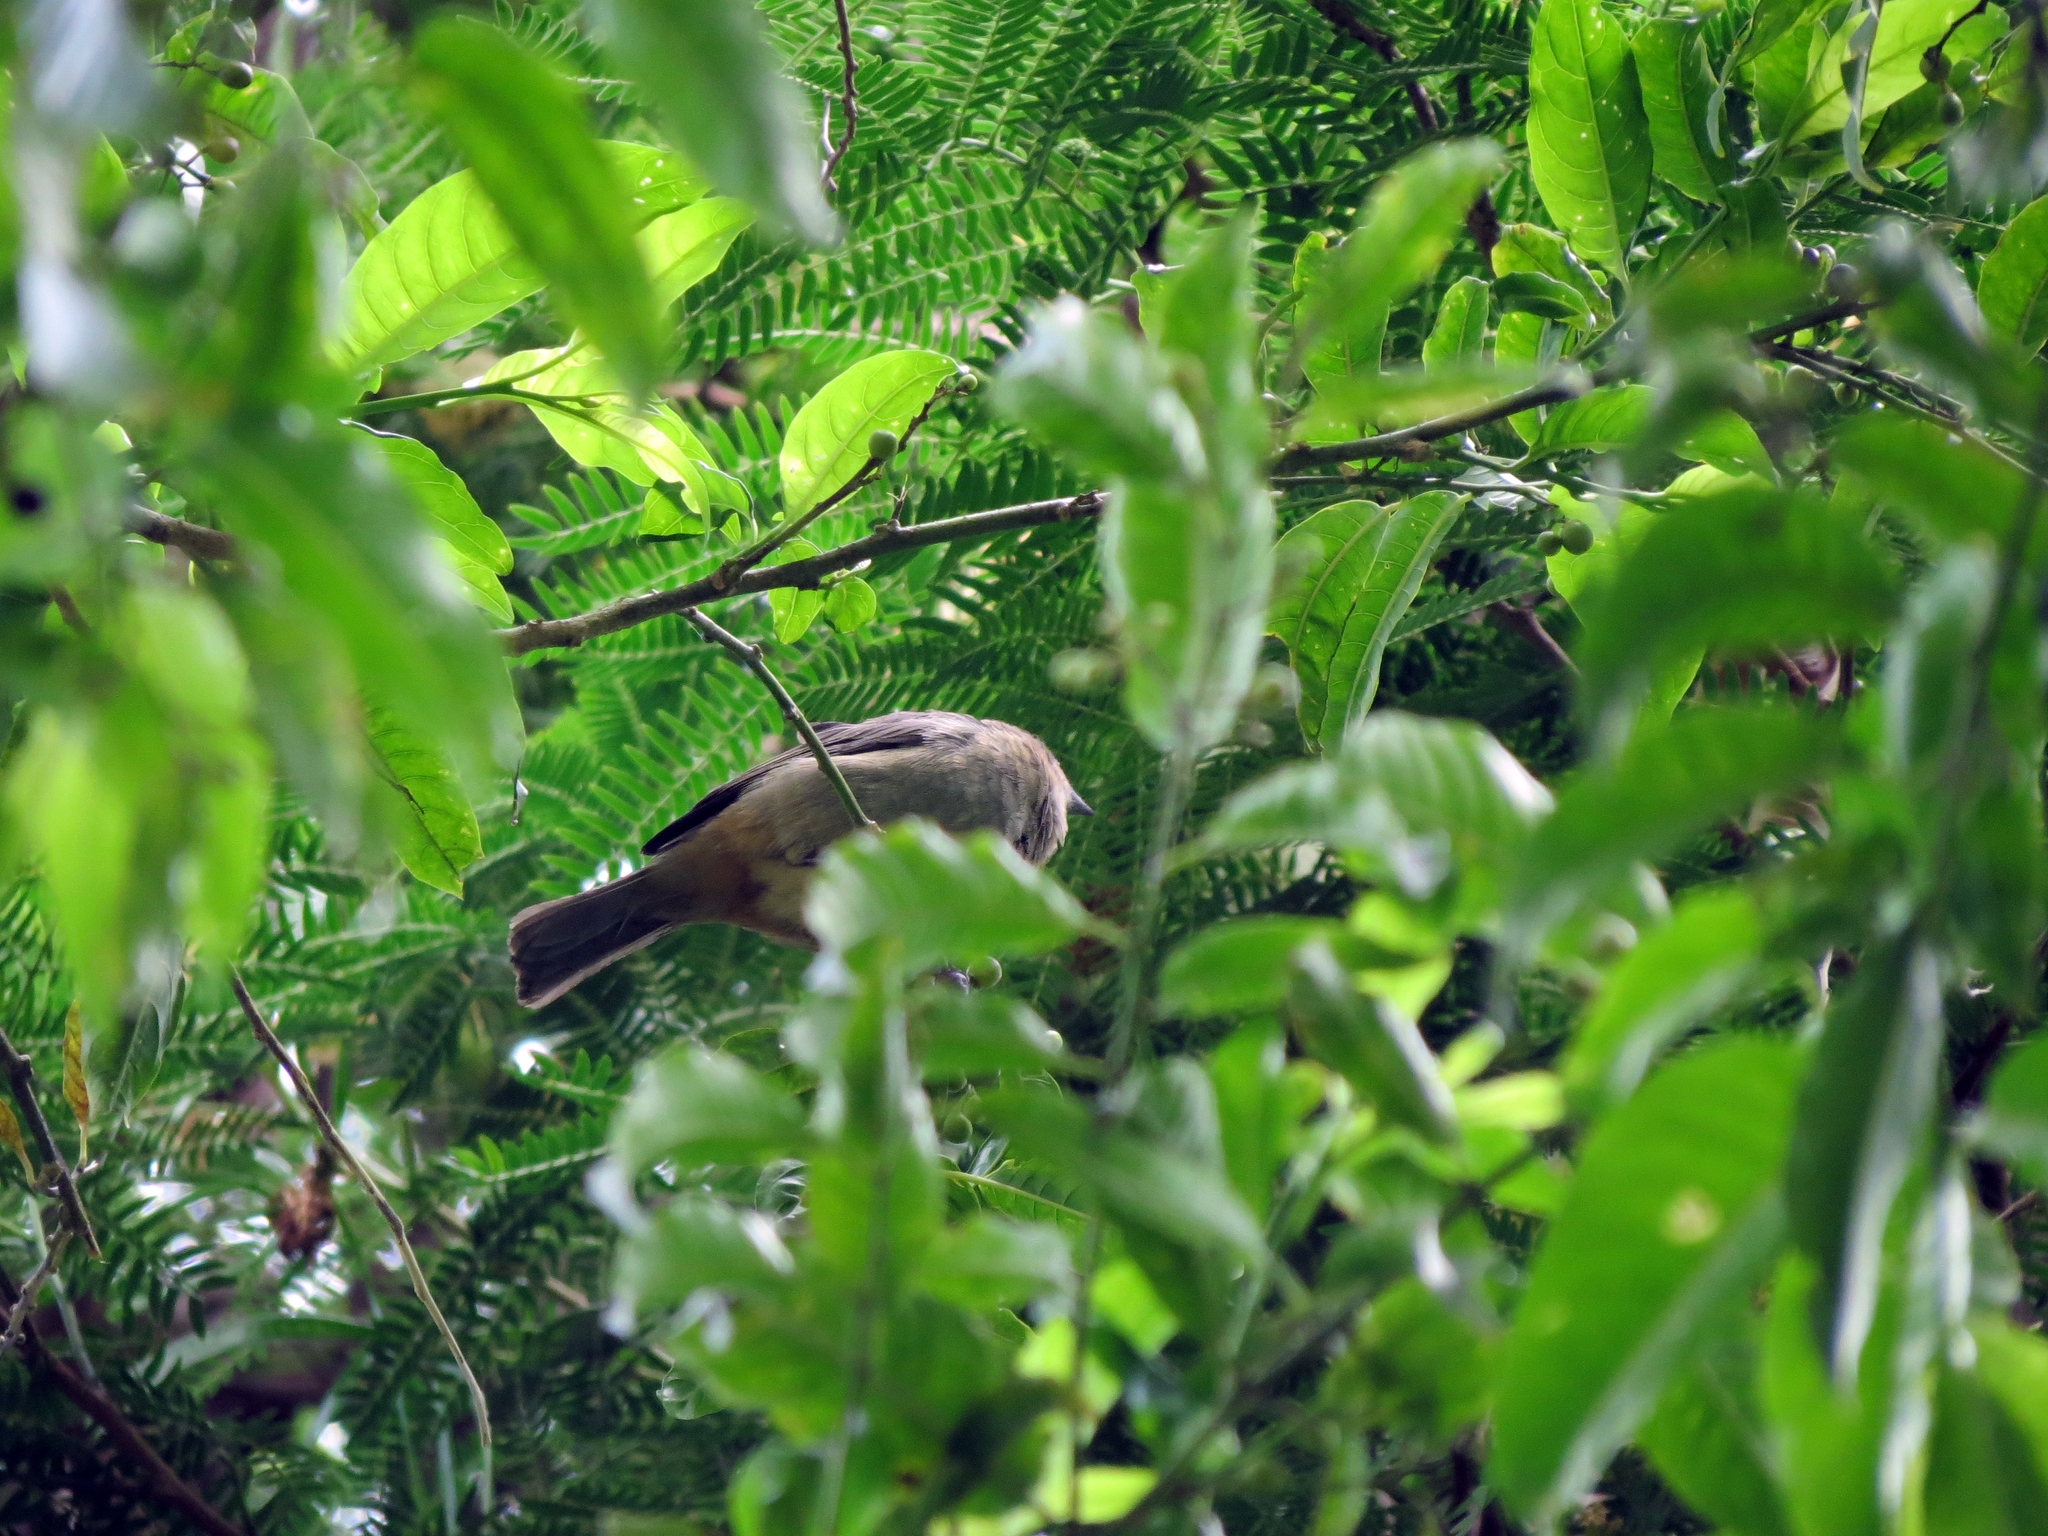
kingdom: Animalia
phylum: Chordata
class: Aves
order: Passeriformes
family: Thraupidae
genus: Stilpnia
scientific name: Stilpnia vitriolina
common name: Scrub tanager
